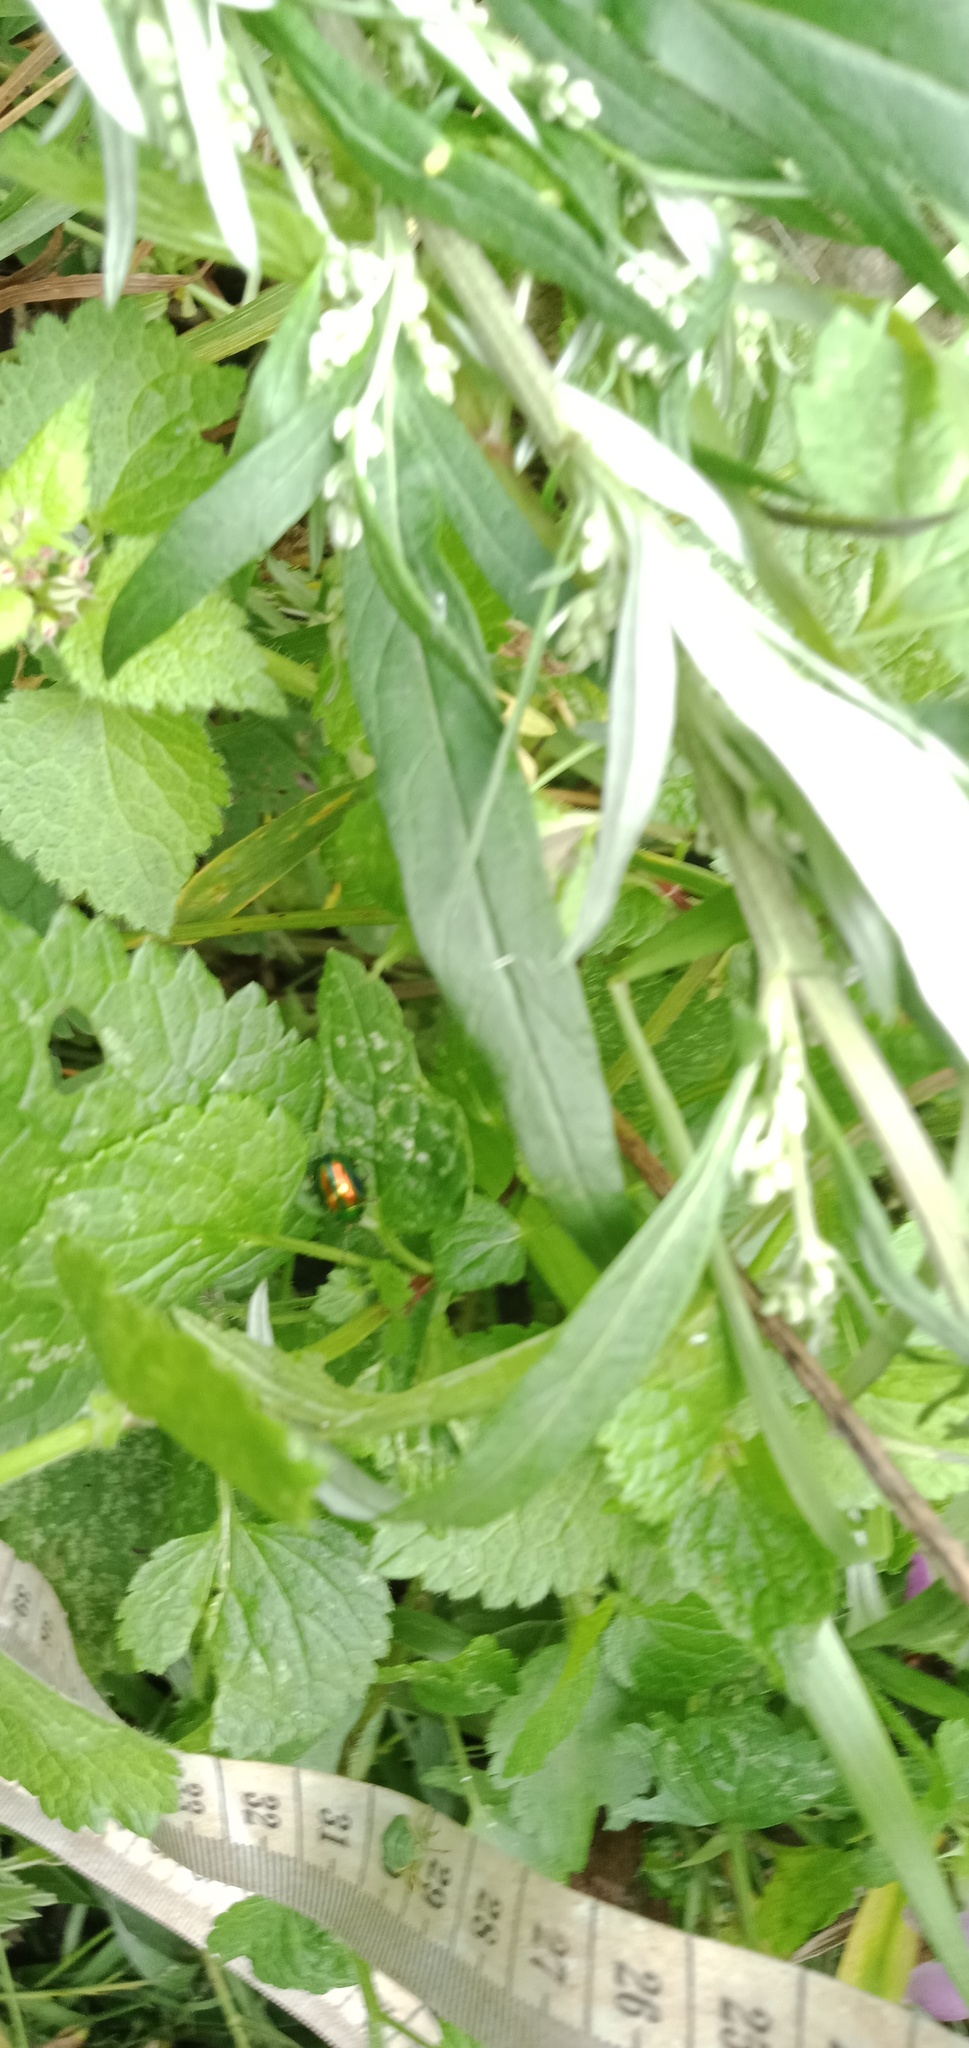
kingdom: Animalia
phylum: Arthropoda
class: Insecta
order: Coleoptera
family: Chrysomelidae
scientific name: Chrysomelidae
